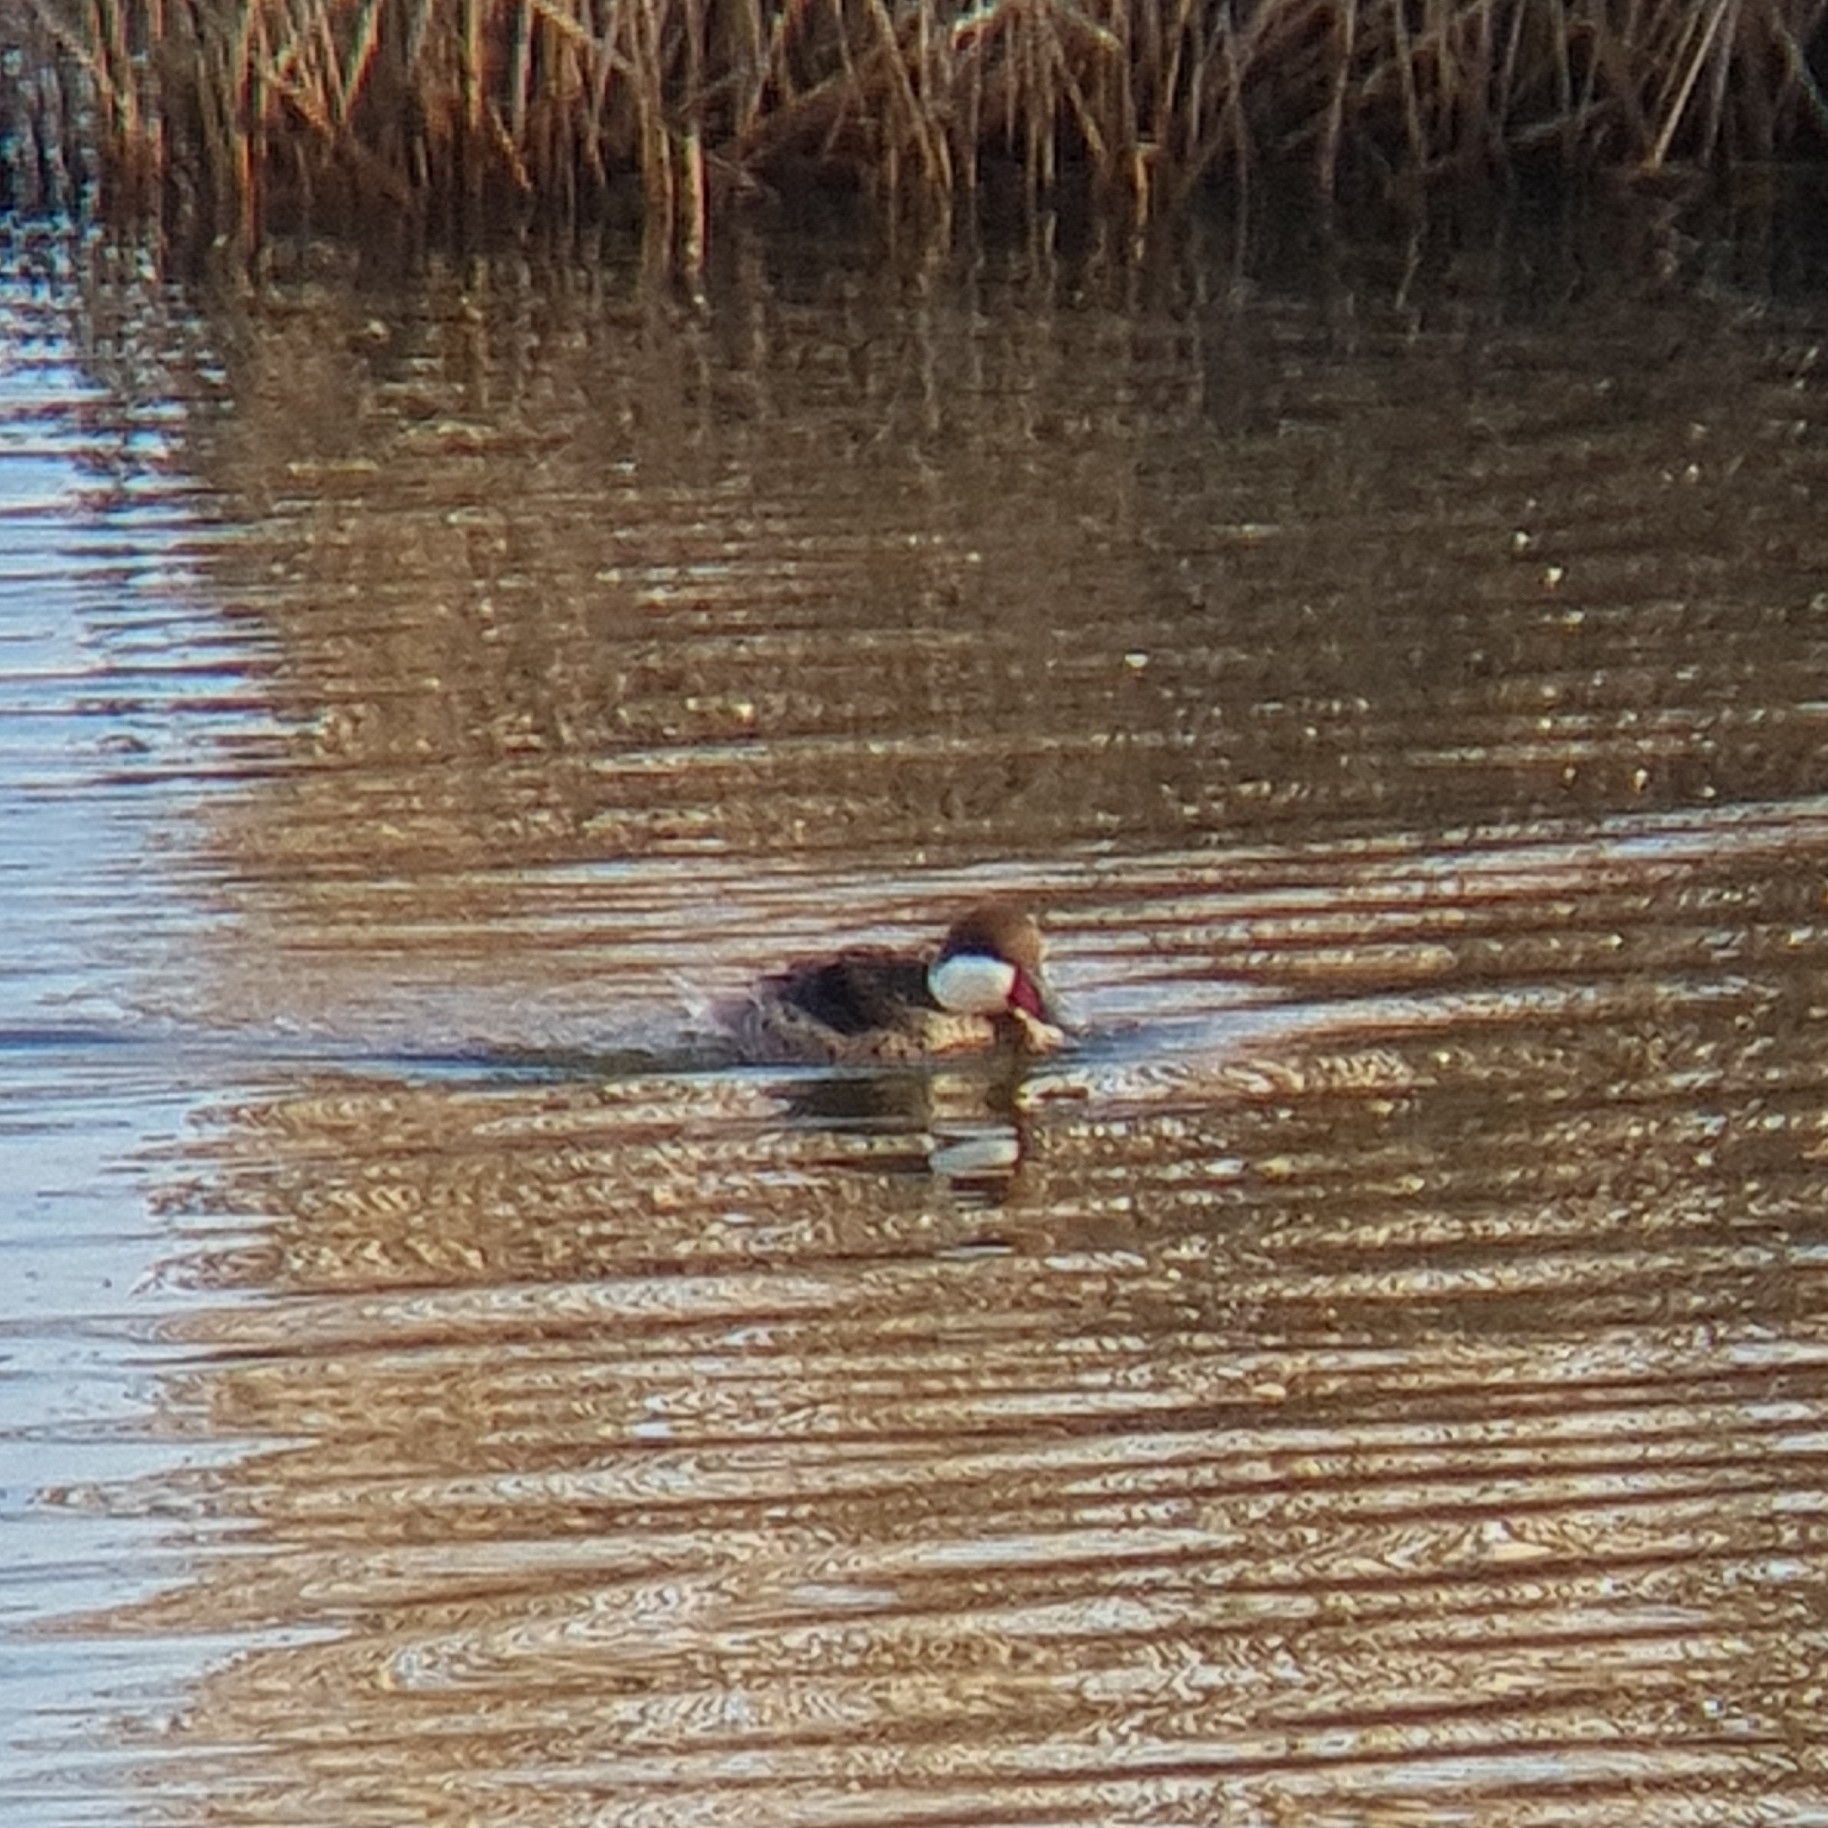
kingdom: Animalia
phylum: Chordata
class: Aves
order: Anseriformes
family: Anatidae
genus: Anas
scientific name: Anas bahamensis
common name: White-cheeked pintail
